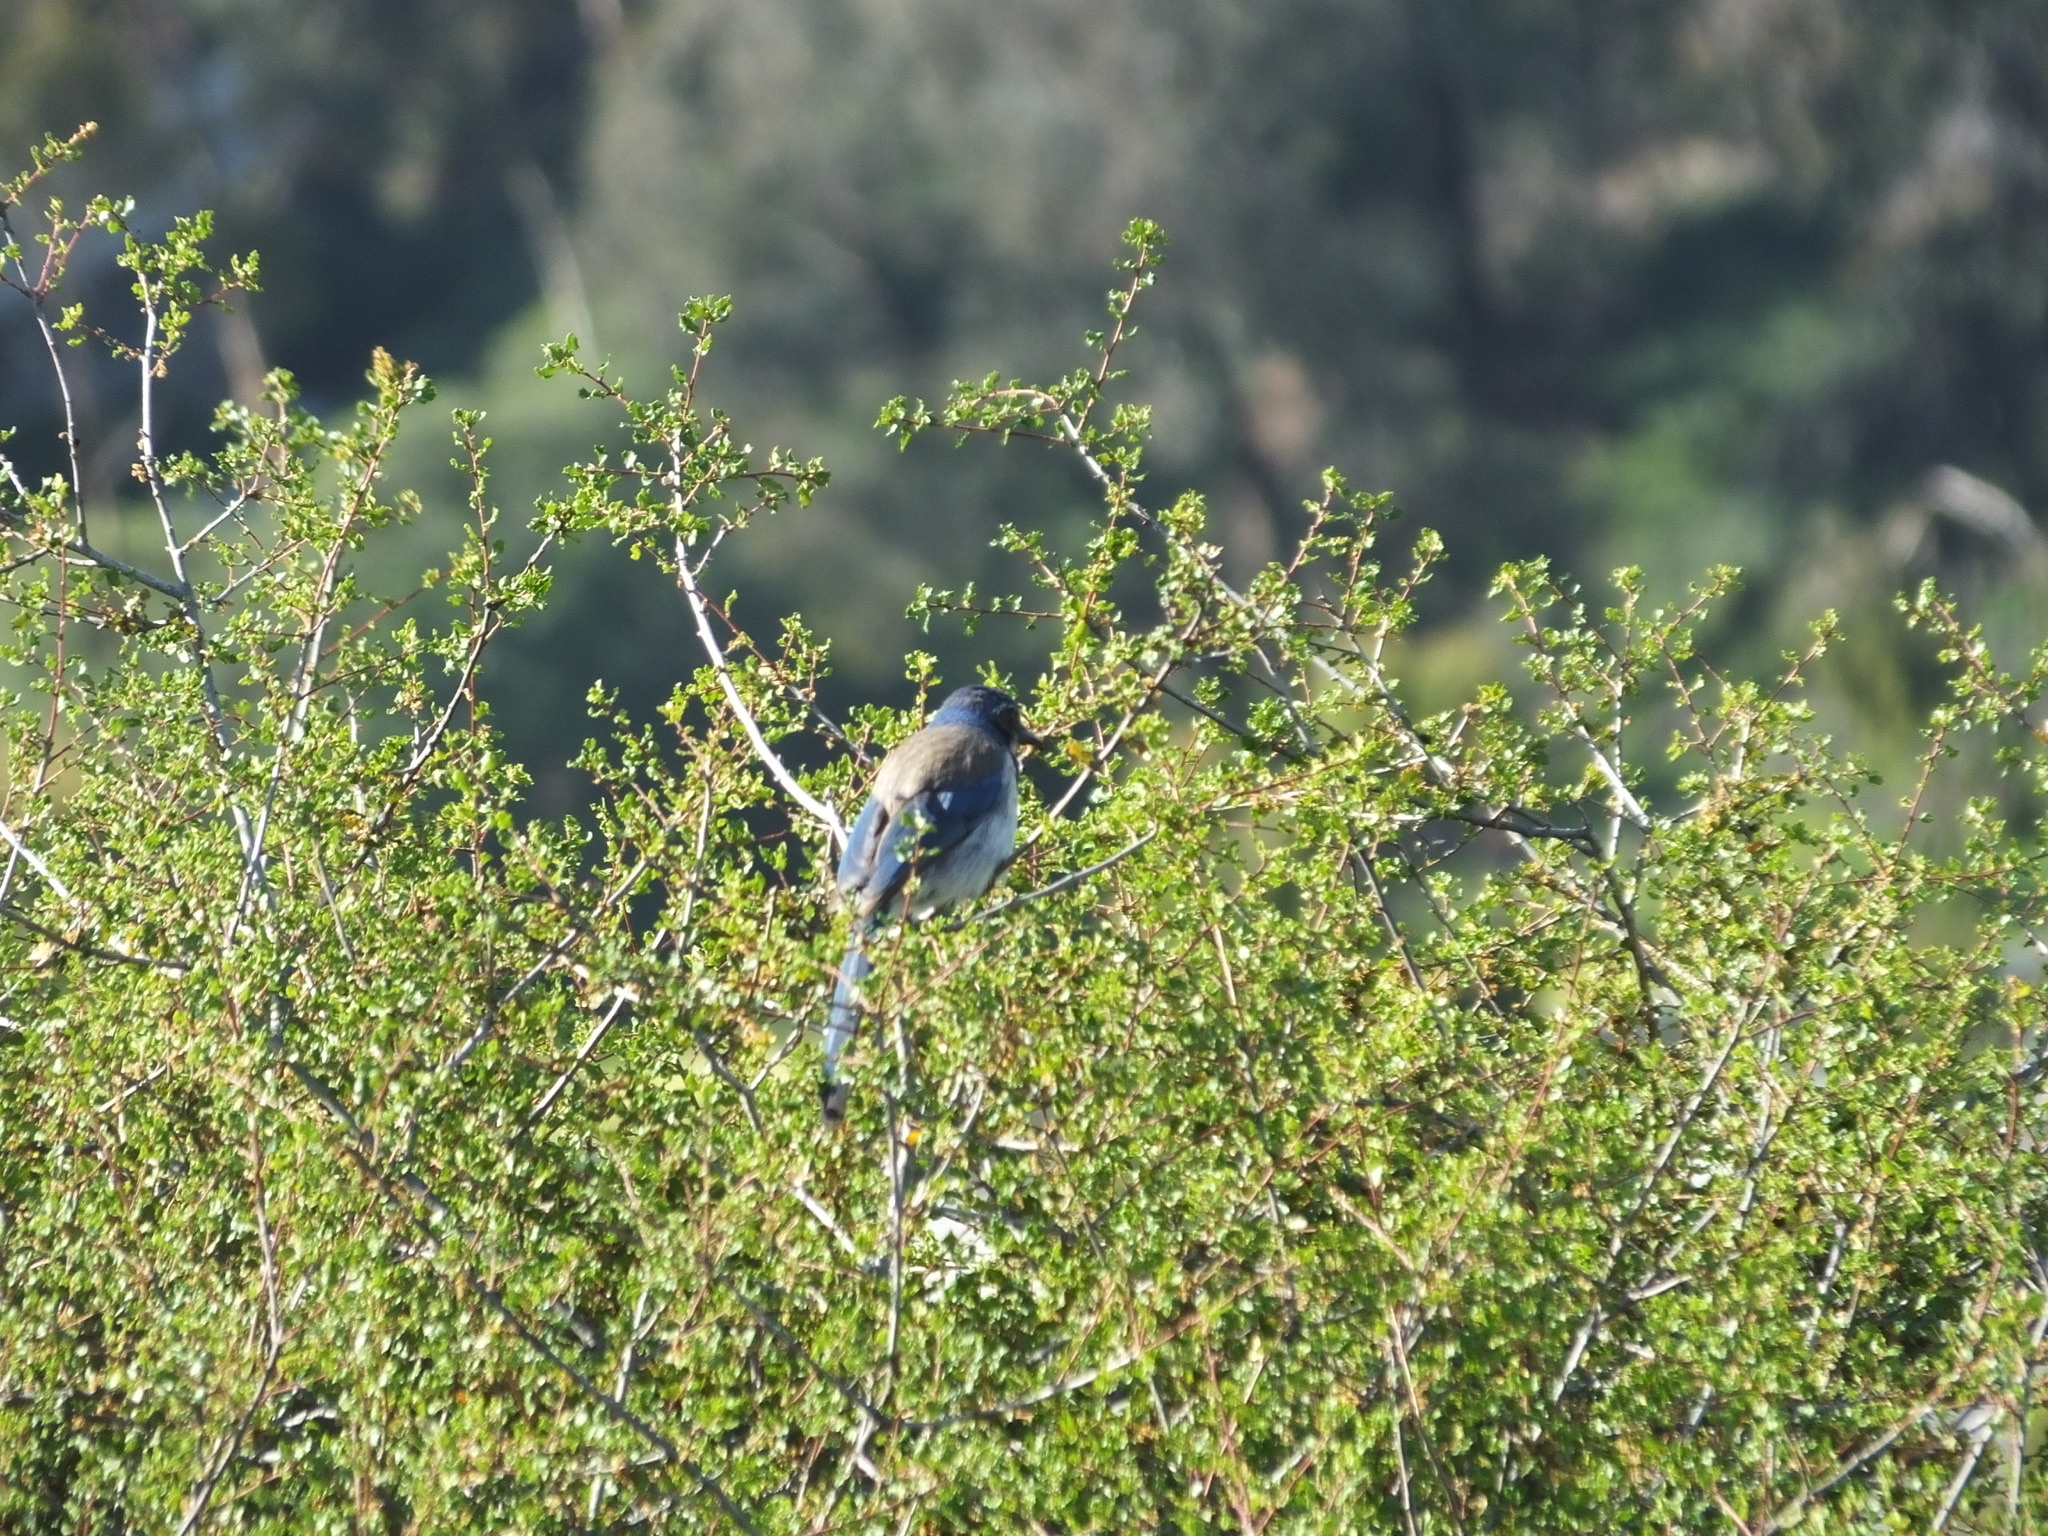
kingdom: Animalia
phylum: Chordata
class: Aves
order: Passeriformes
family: Corvidae
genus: Aphelocoma
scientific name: Aphelocoma californica
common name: California scrub-jay
